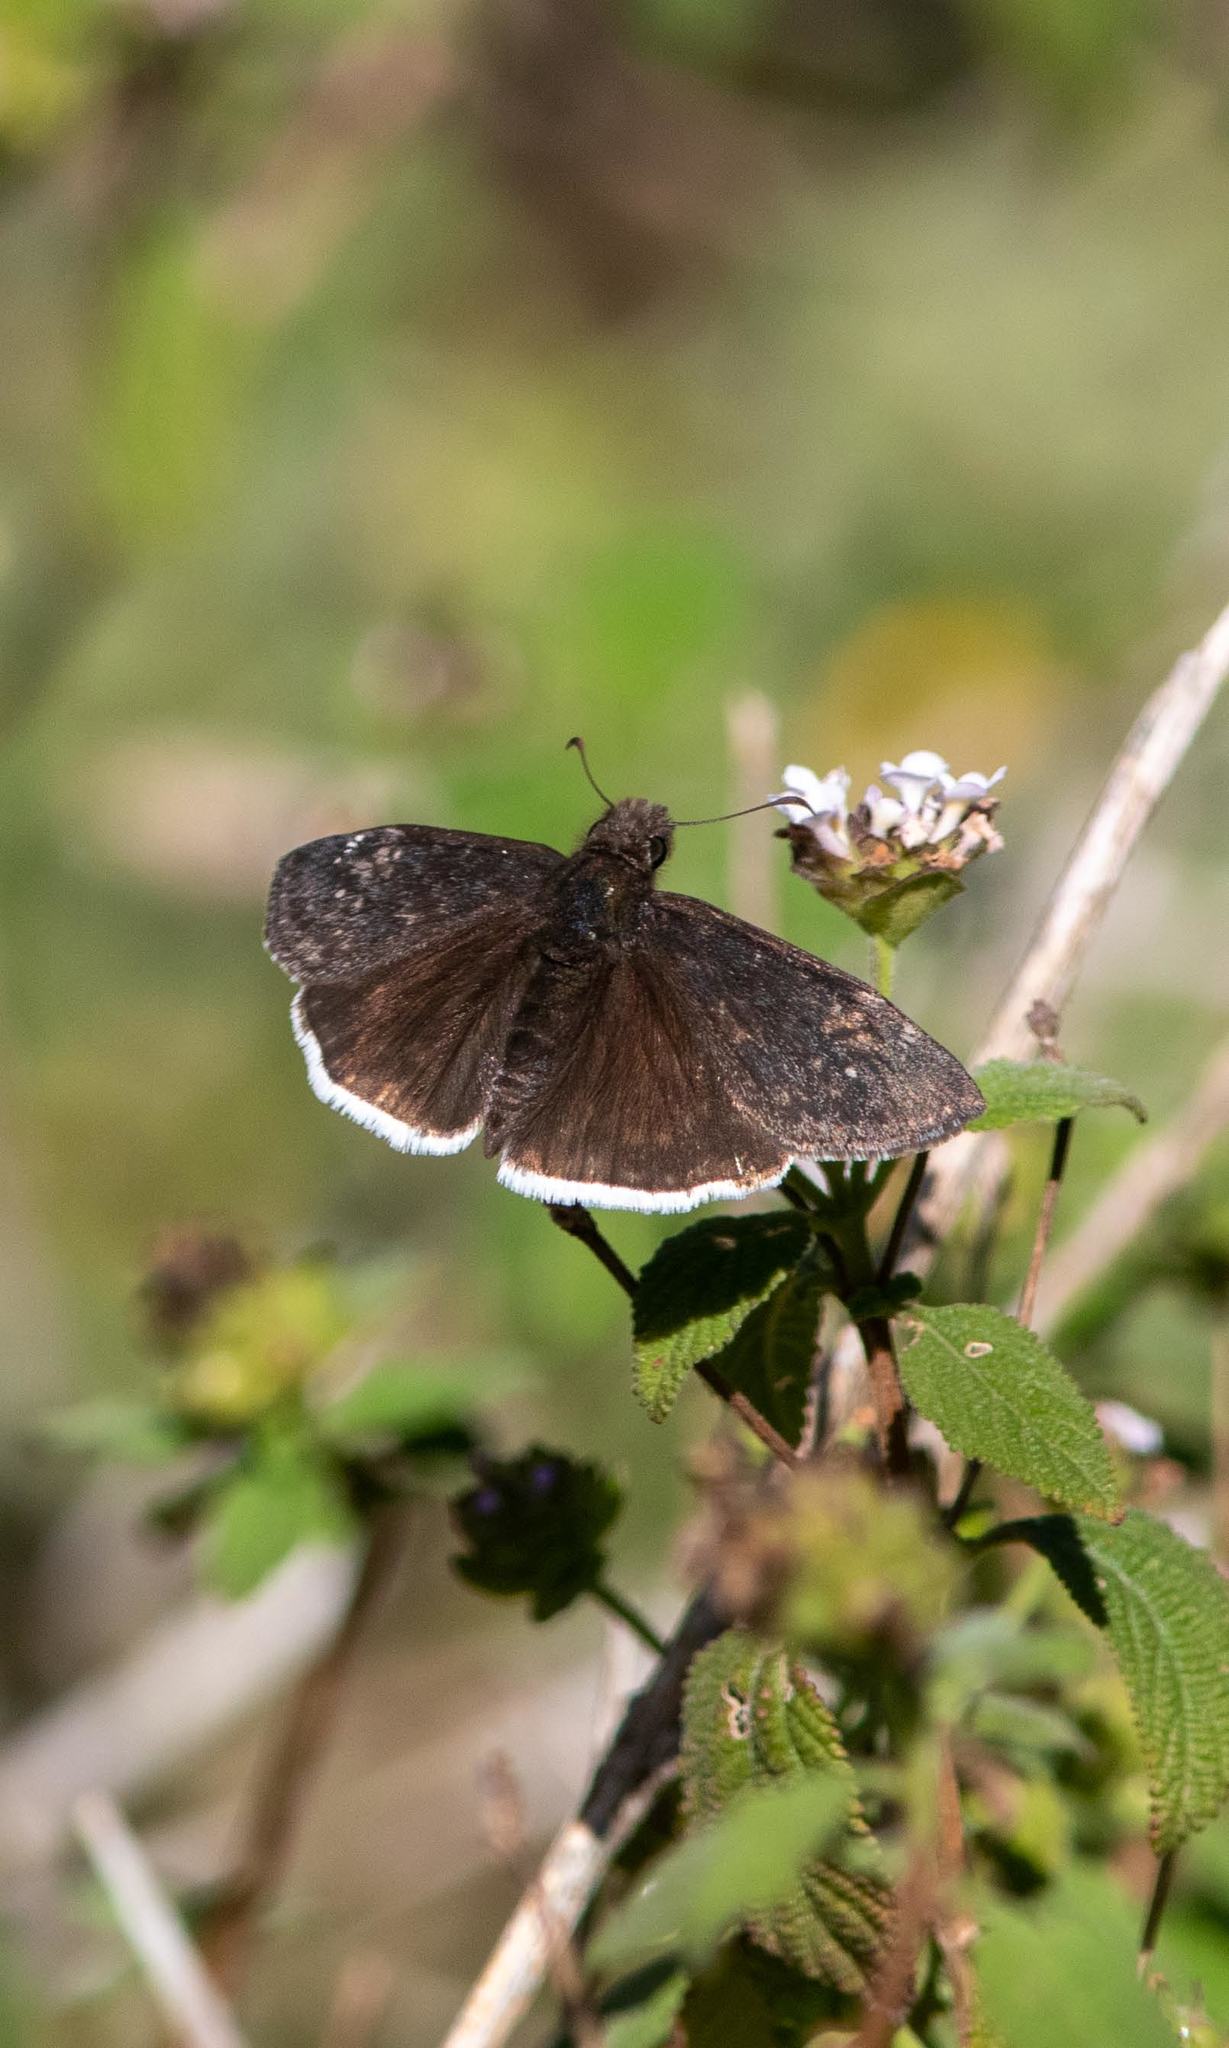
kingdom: Animalia
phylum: Arthropoda
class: Insecta
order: Lepidoptera
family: Hesperiidae
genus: Erynnis
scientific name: Erynnis funeralis
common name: Funereal duskywing
